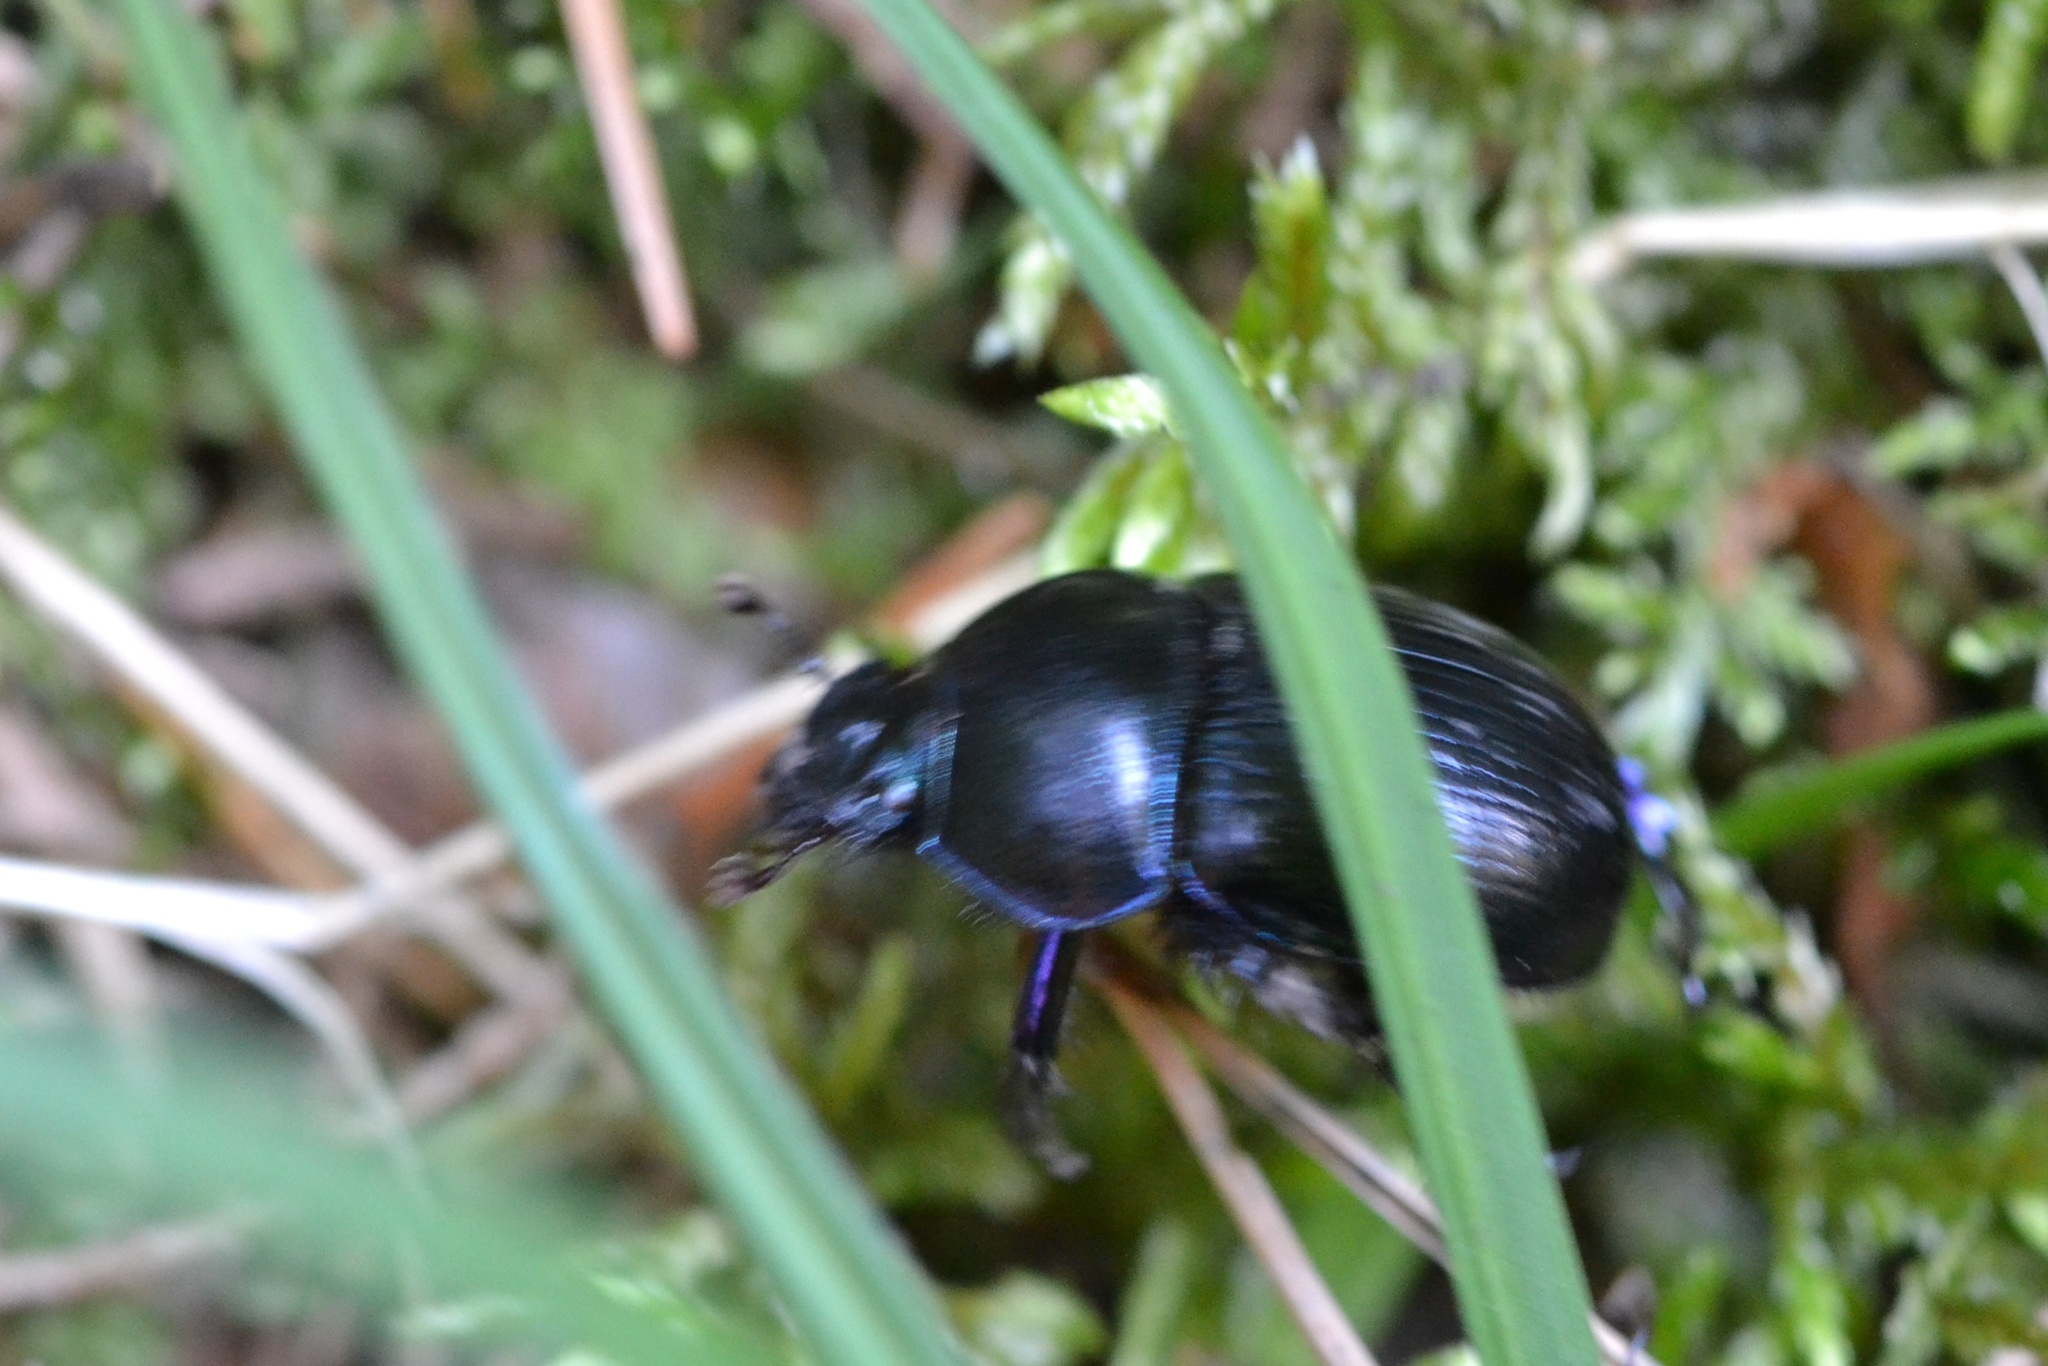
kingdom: Animalia
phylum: Arthropoda
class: Insecta
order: Coleoptera
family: Geotrupidae
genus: Anoplotrupes
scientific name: Anoplotrupes stercorosus
